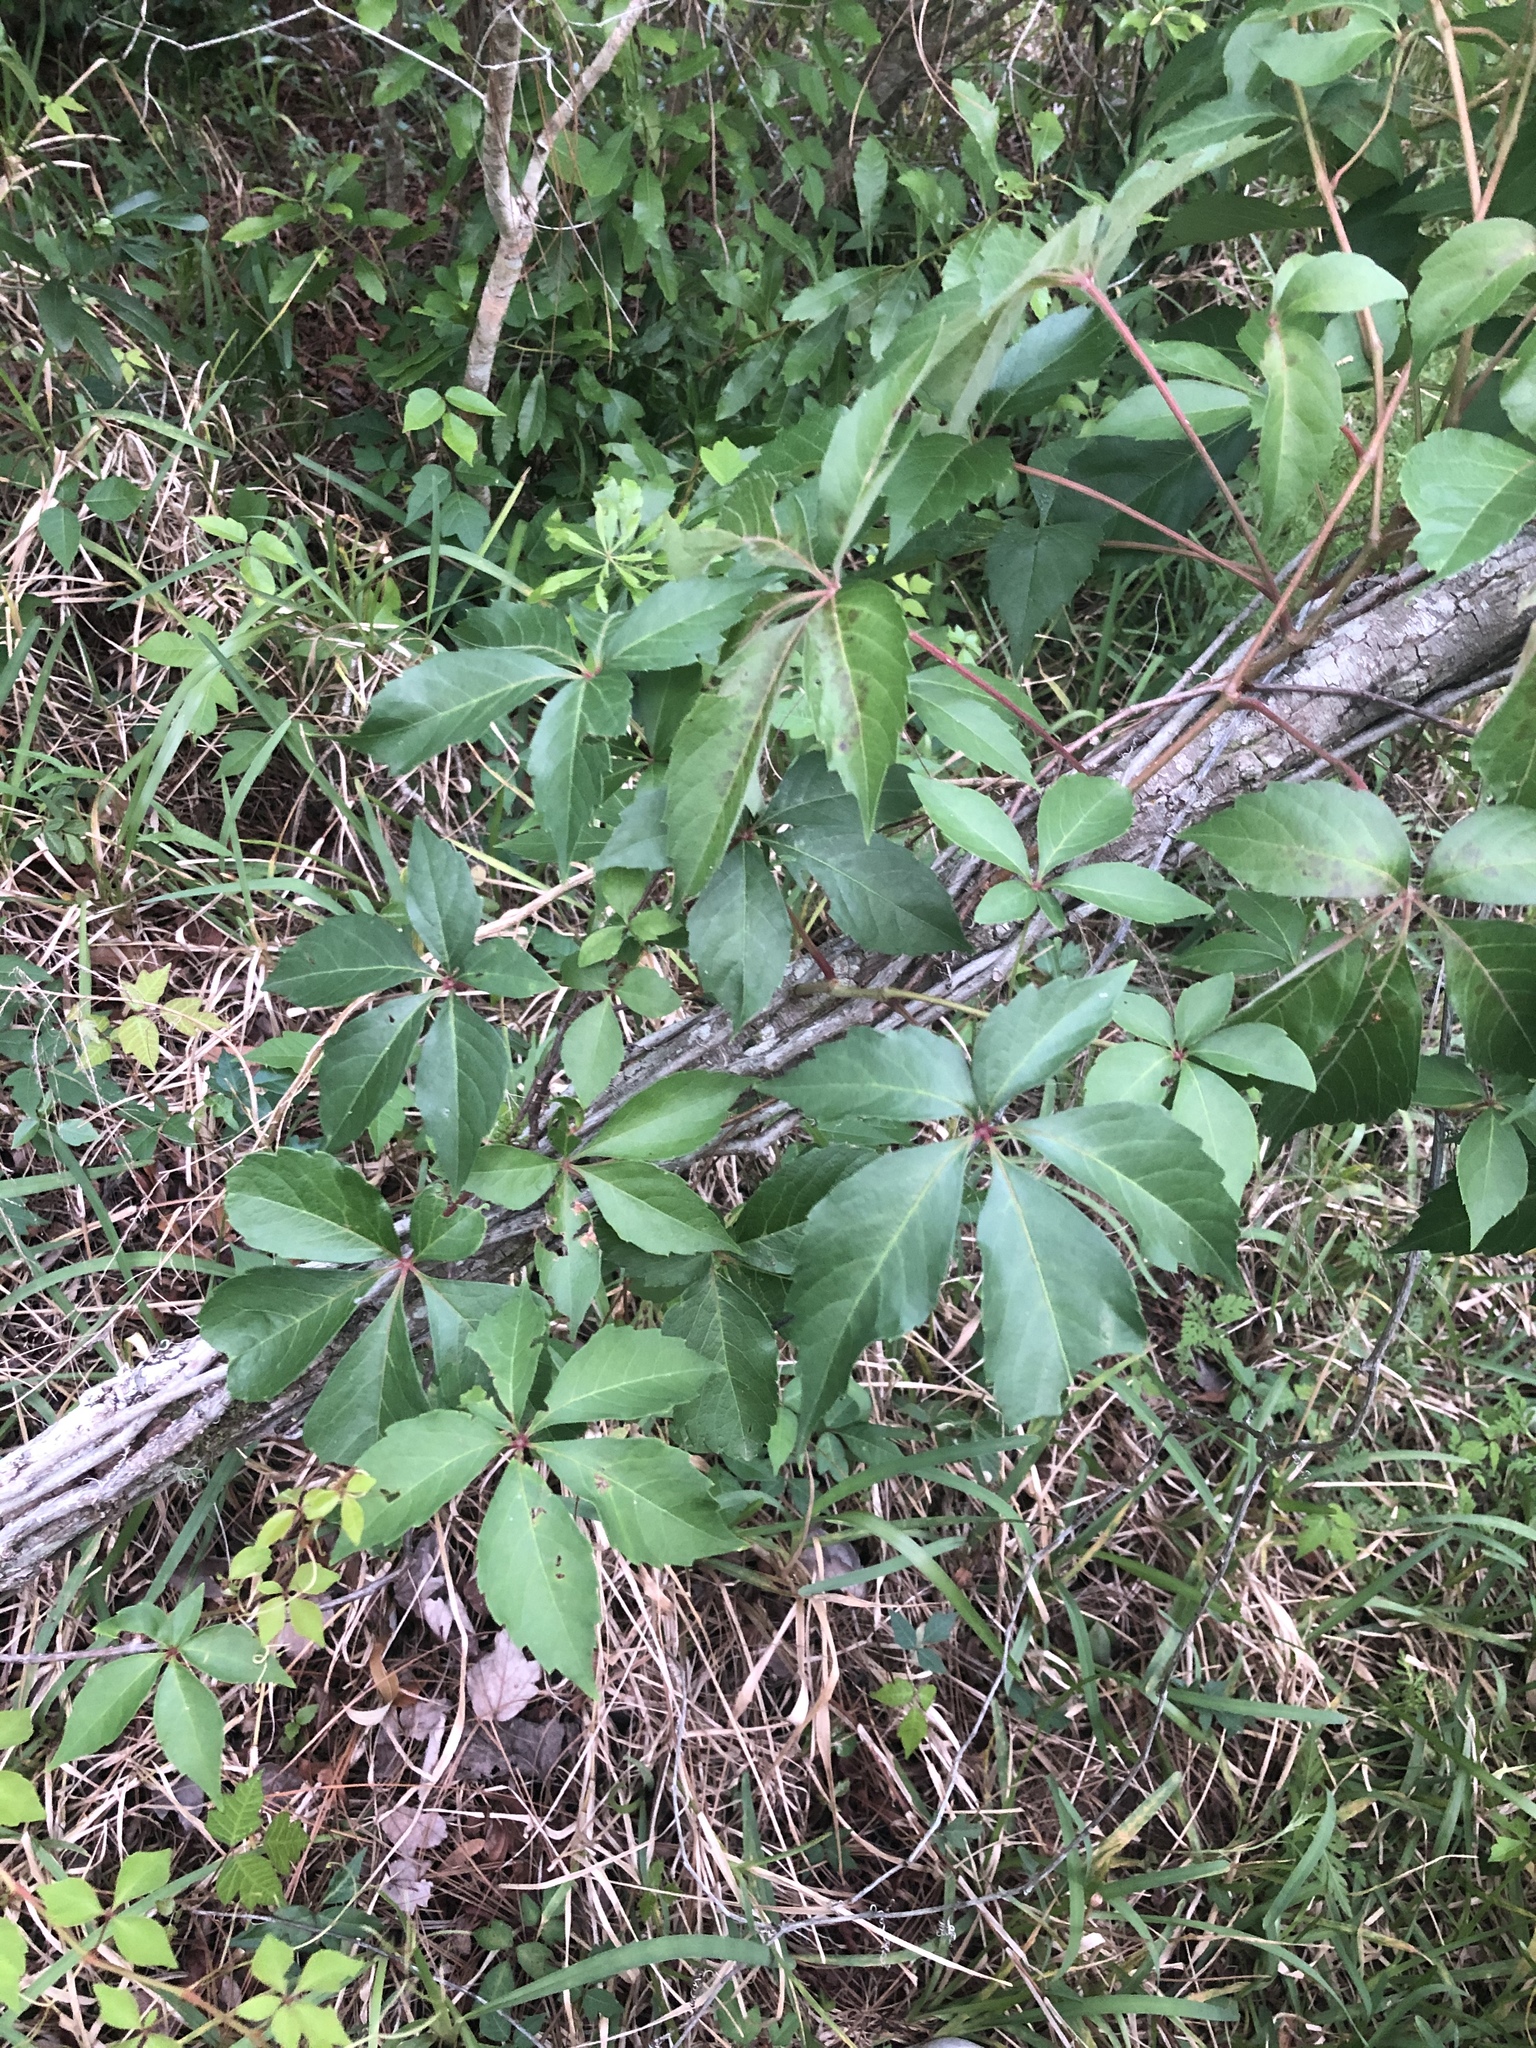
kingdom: Plantae
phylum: Tracheophyta
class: Magnoliopsida
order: Vitales
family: Vitaceae
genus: Parthenocissus
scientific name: Parthenocissus quinquefolia
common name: Virginia-creeper
